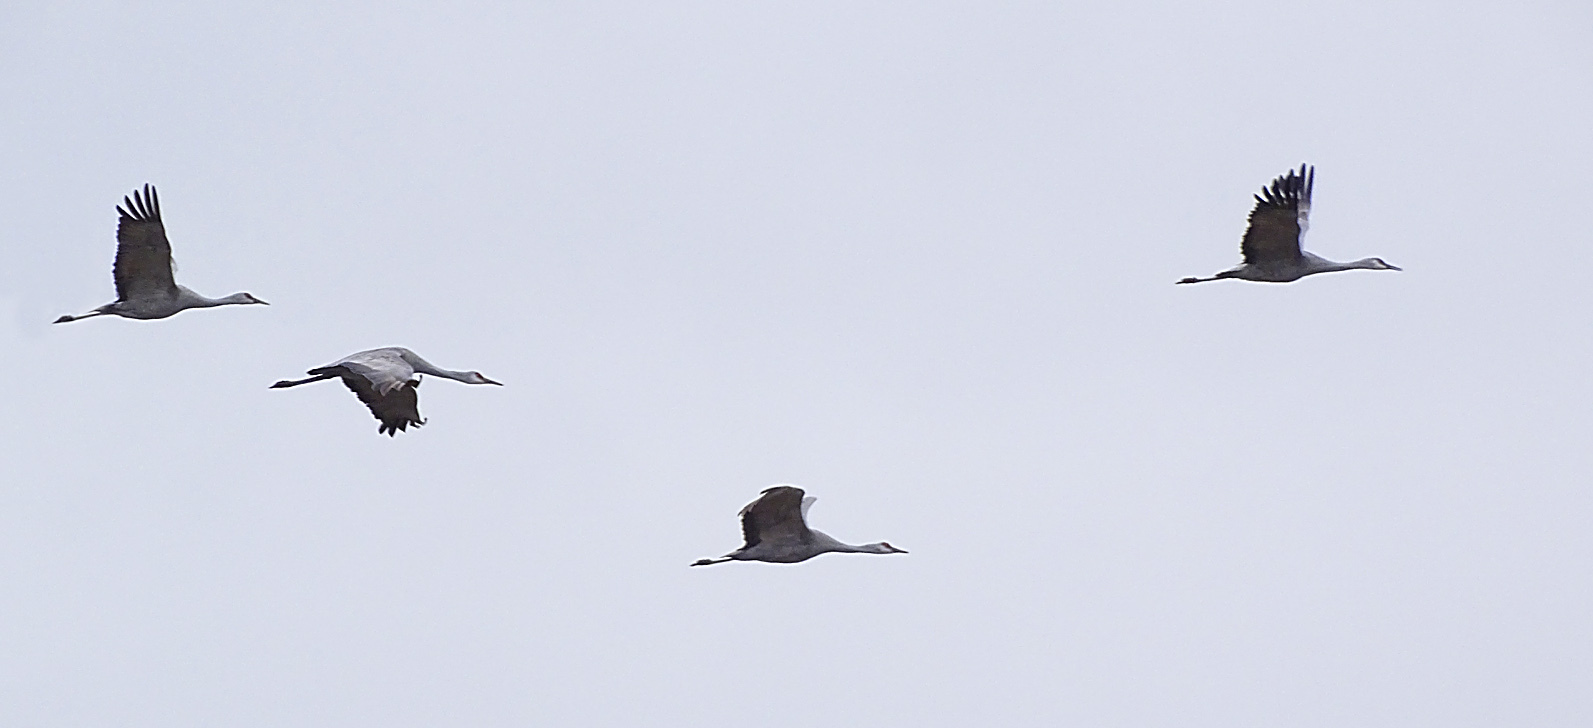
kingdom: Animalia
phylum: Chordata
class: Aves
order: Gruiformes
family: Gruidae
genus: Grus
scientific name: Grus canadensis
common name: Sandhill crane
